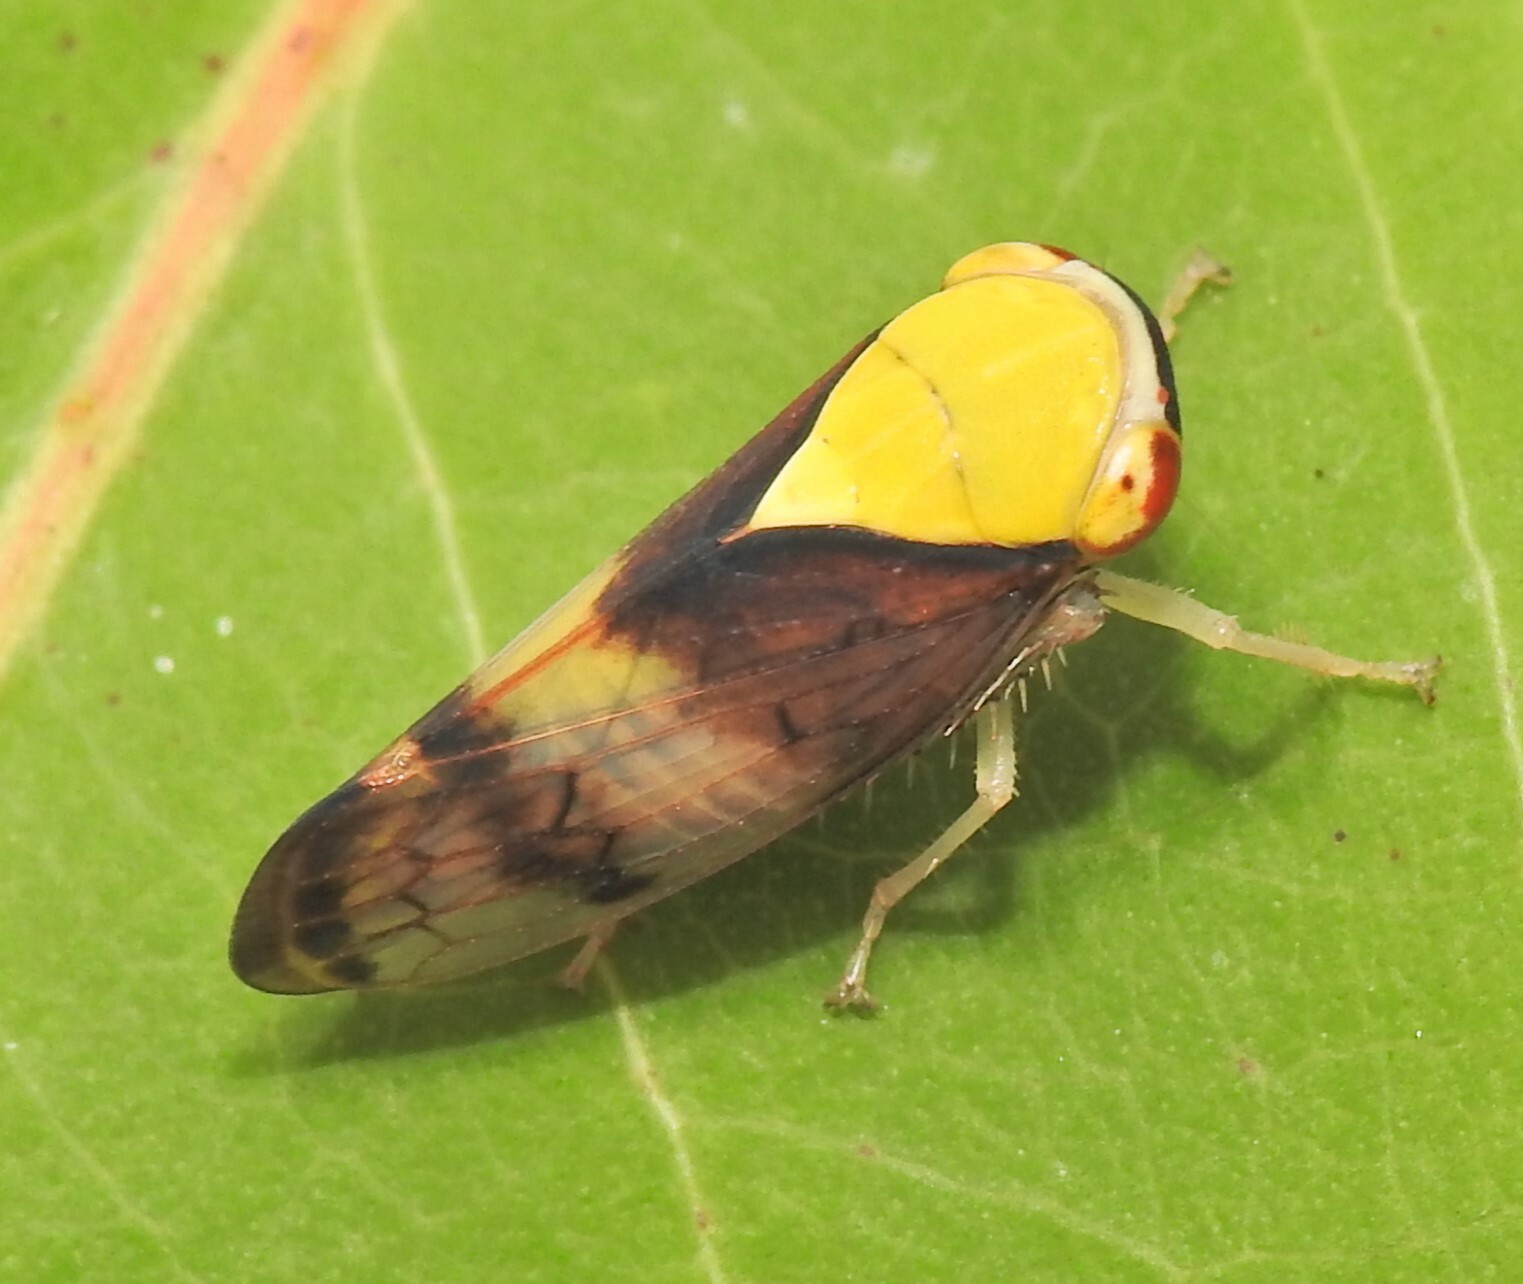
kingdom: Animalia
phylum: Arthropoda
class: Insecta
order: Hemiptera
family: Cicadellidae
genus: Brunotartessus
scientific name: Brunotartessus fulvus
